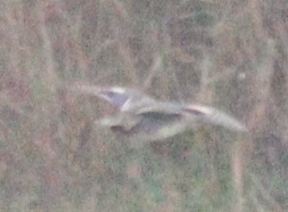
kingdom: Animalia
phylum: Chordata
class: Aves
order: Anseriformes
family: Anatidae
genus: Anas
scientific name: Anas crecca
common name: Eurasian teal
